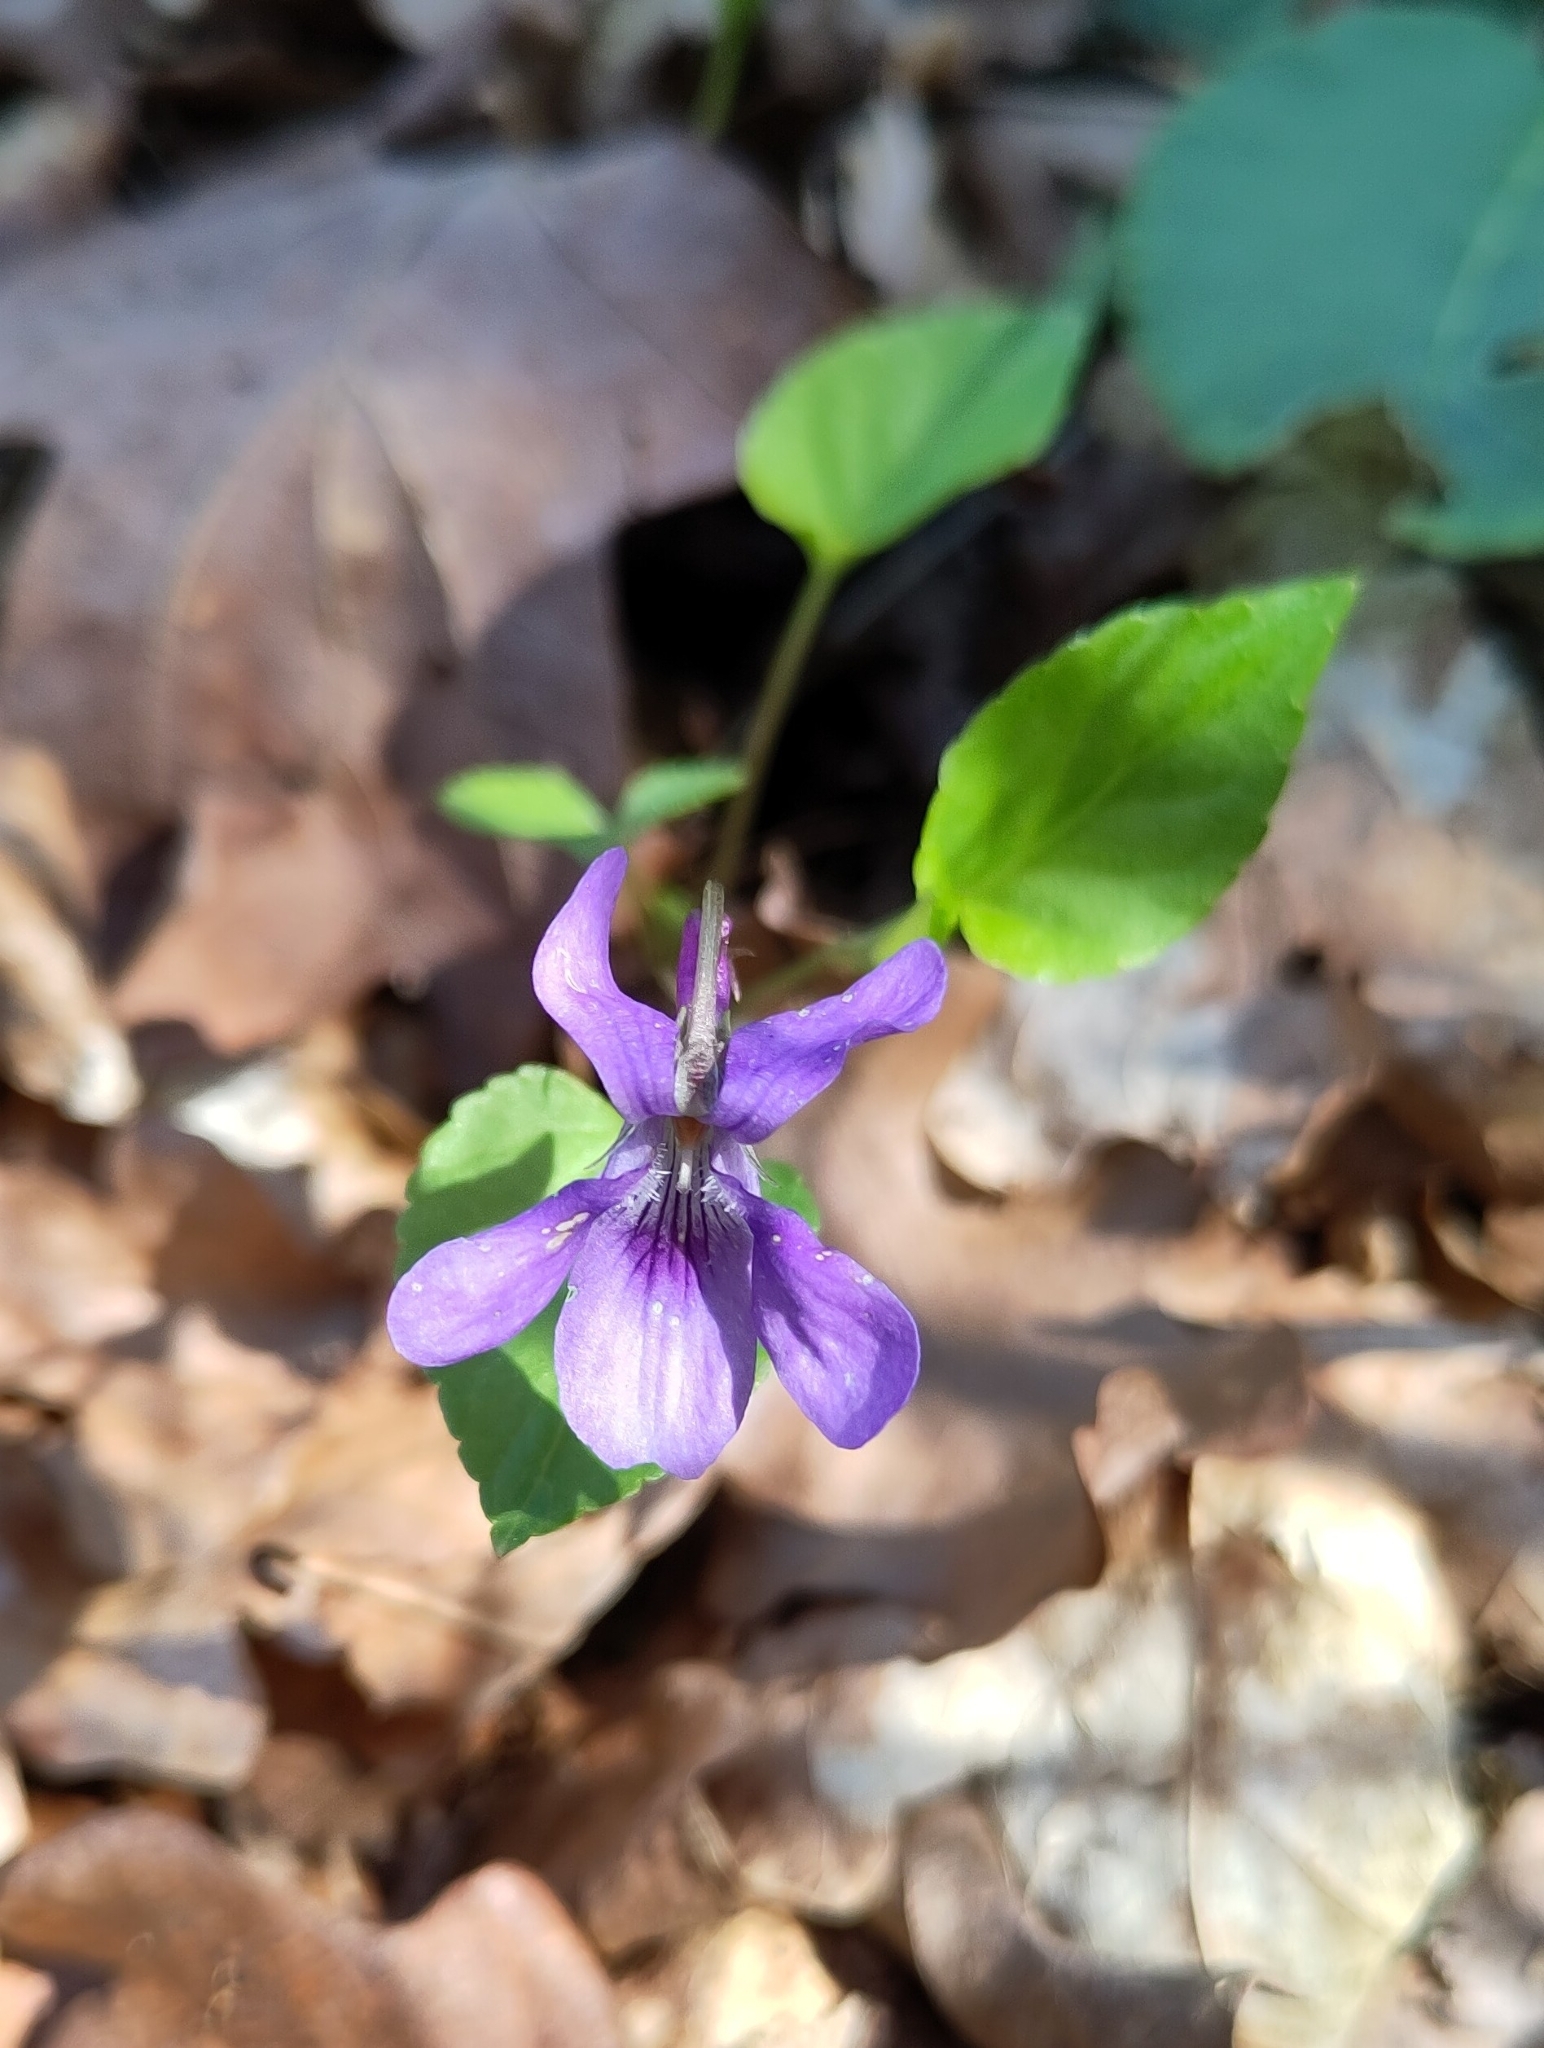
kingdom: Plantae
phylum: Tracheophyta
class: Magnoliopsida
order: Malpighiales
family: Violaceae
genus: Viola
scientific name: Viola reichenbachiana
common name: Early dog-violet
